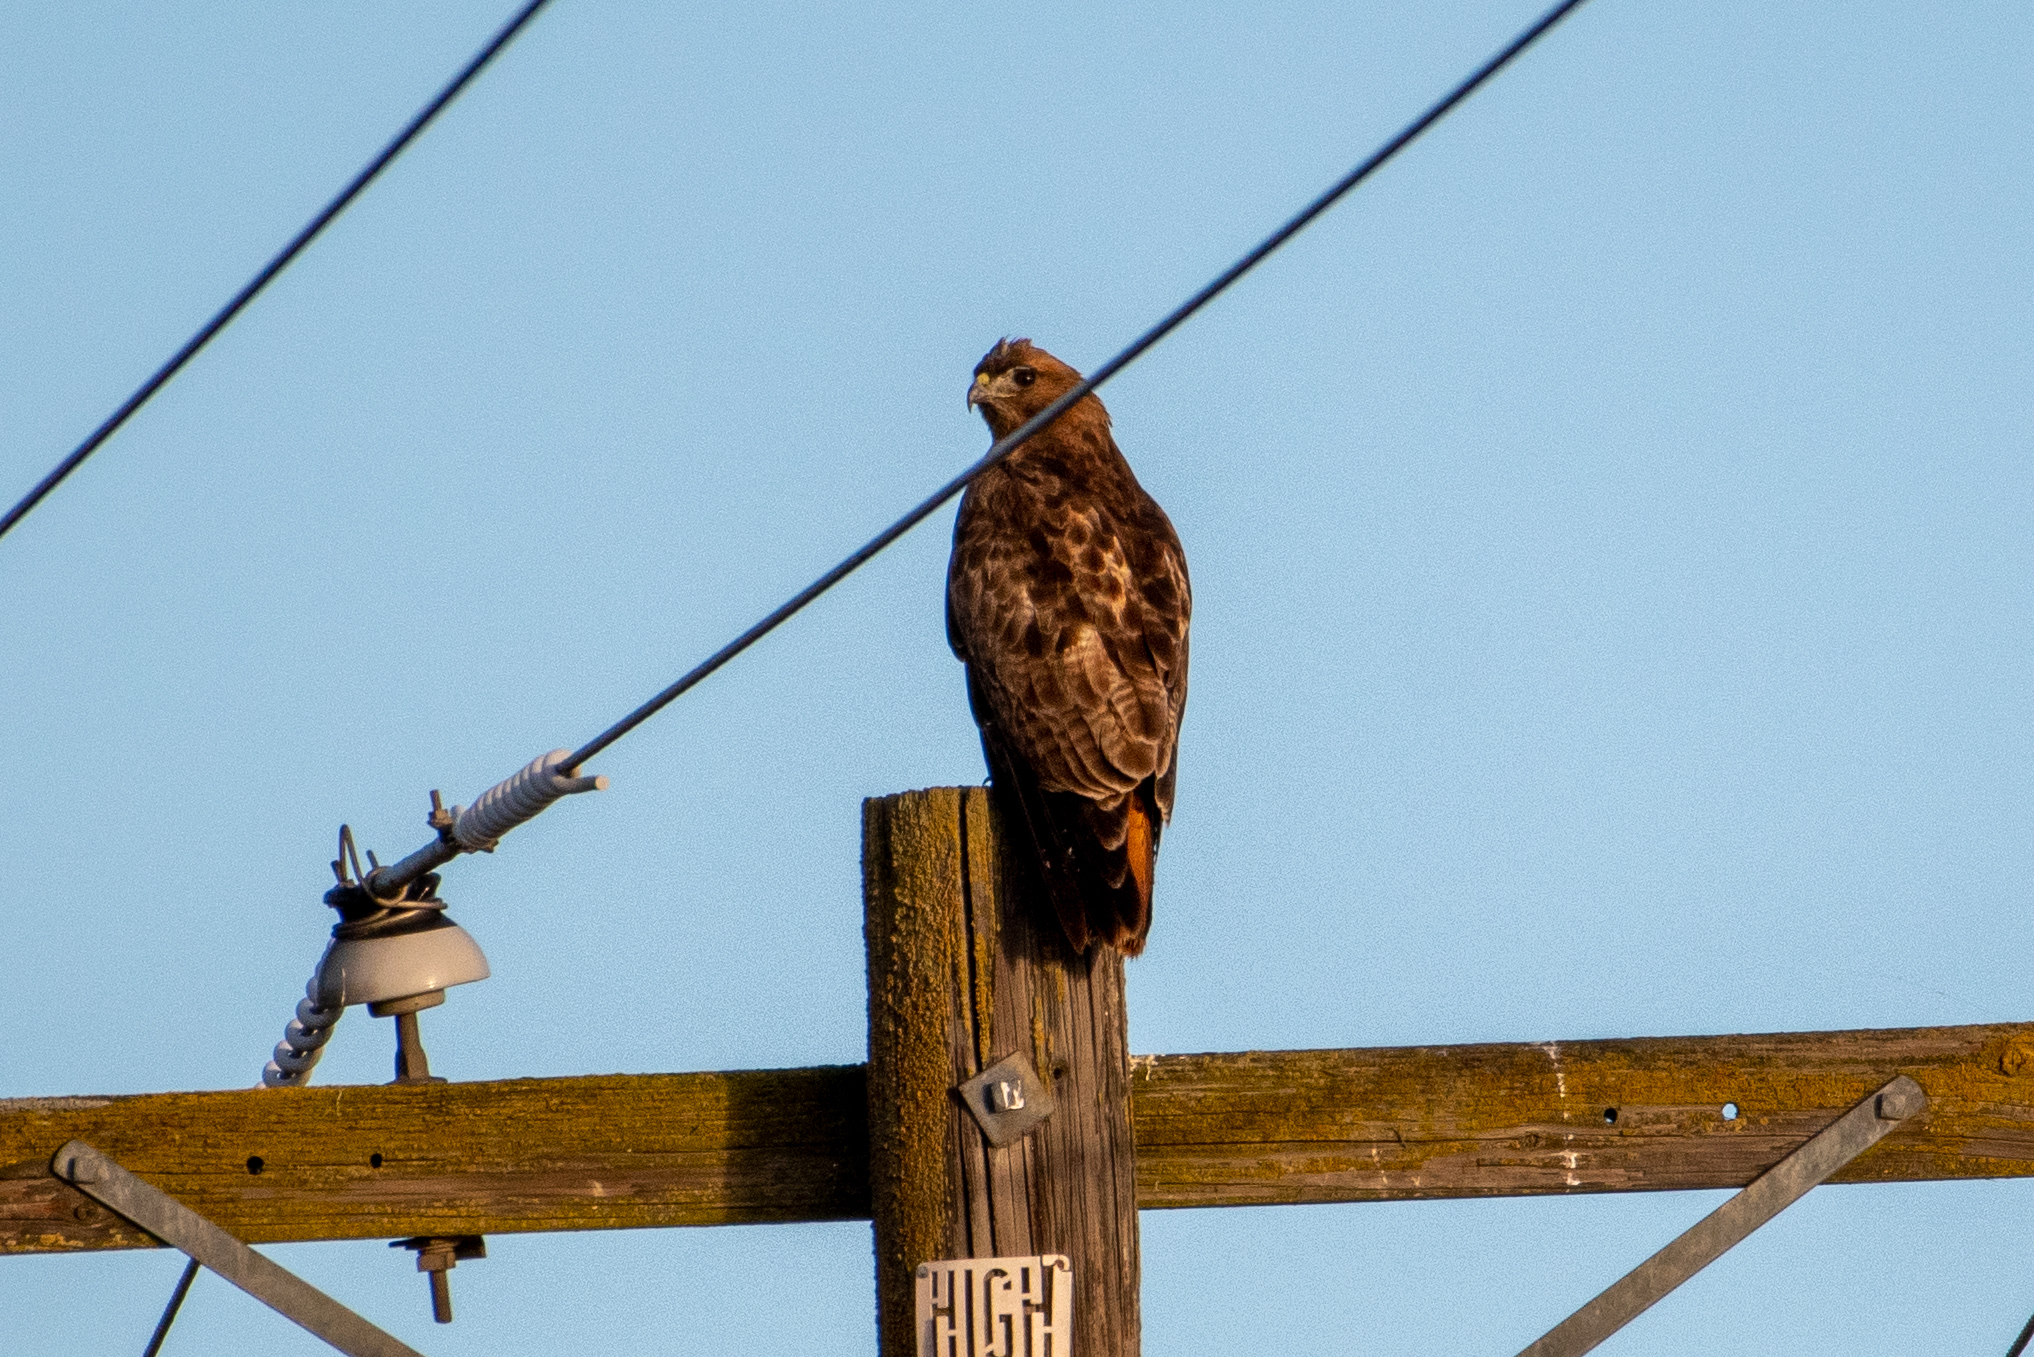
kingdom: Animalia
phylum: Chordata
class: Aves
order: Accipitriformes
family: Accipitridae
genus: Buteo
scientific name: Buteo jamaicensis
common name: Red-tailed hawk
